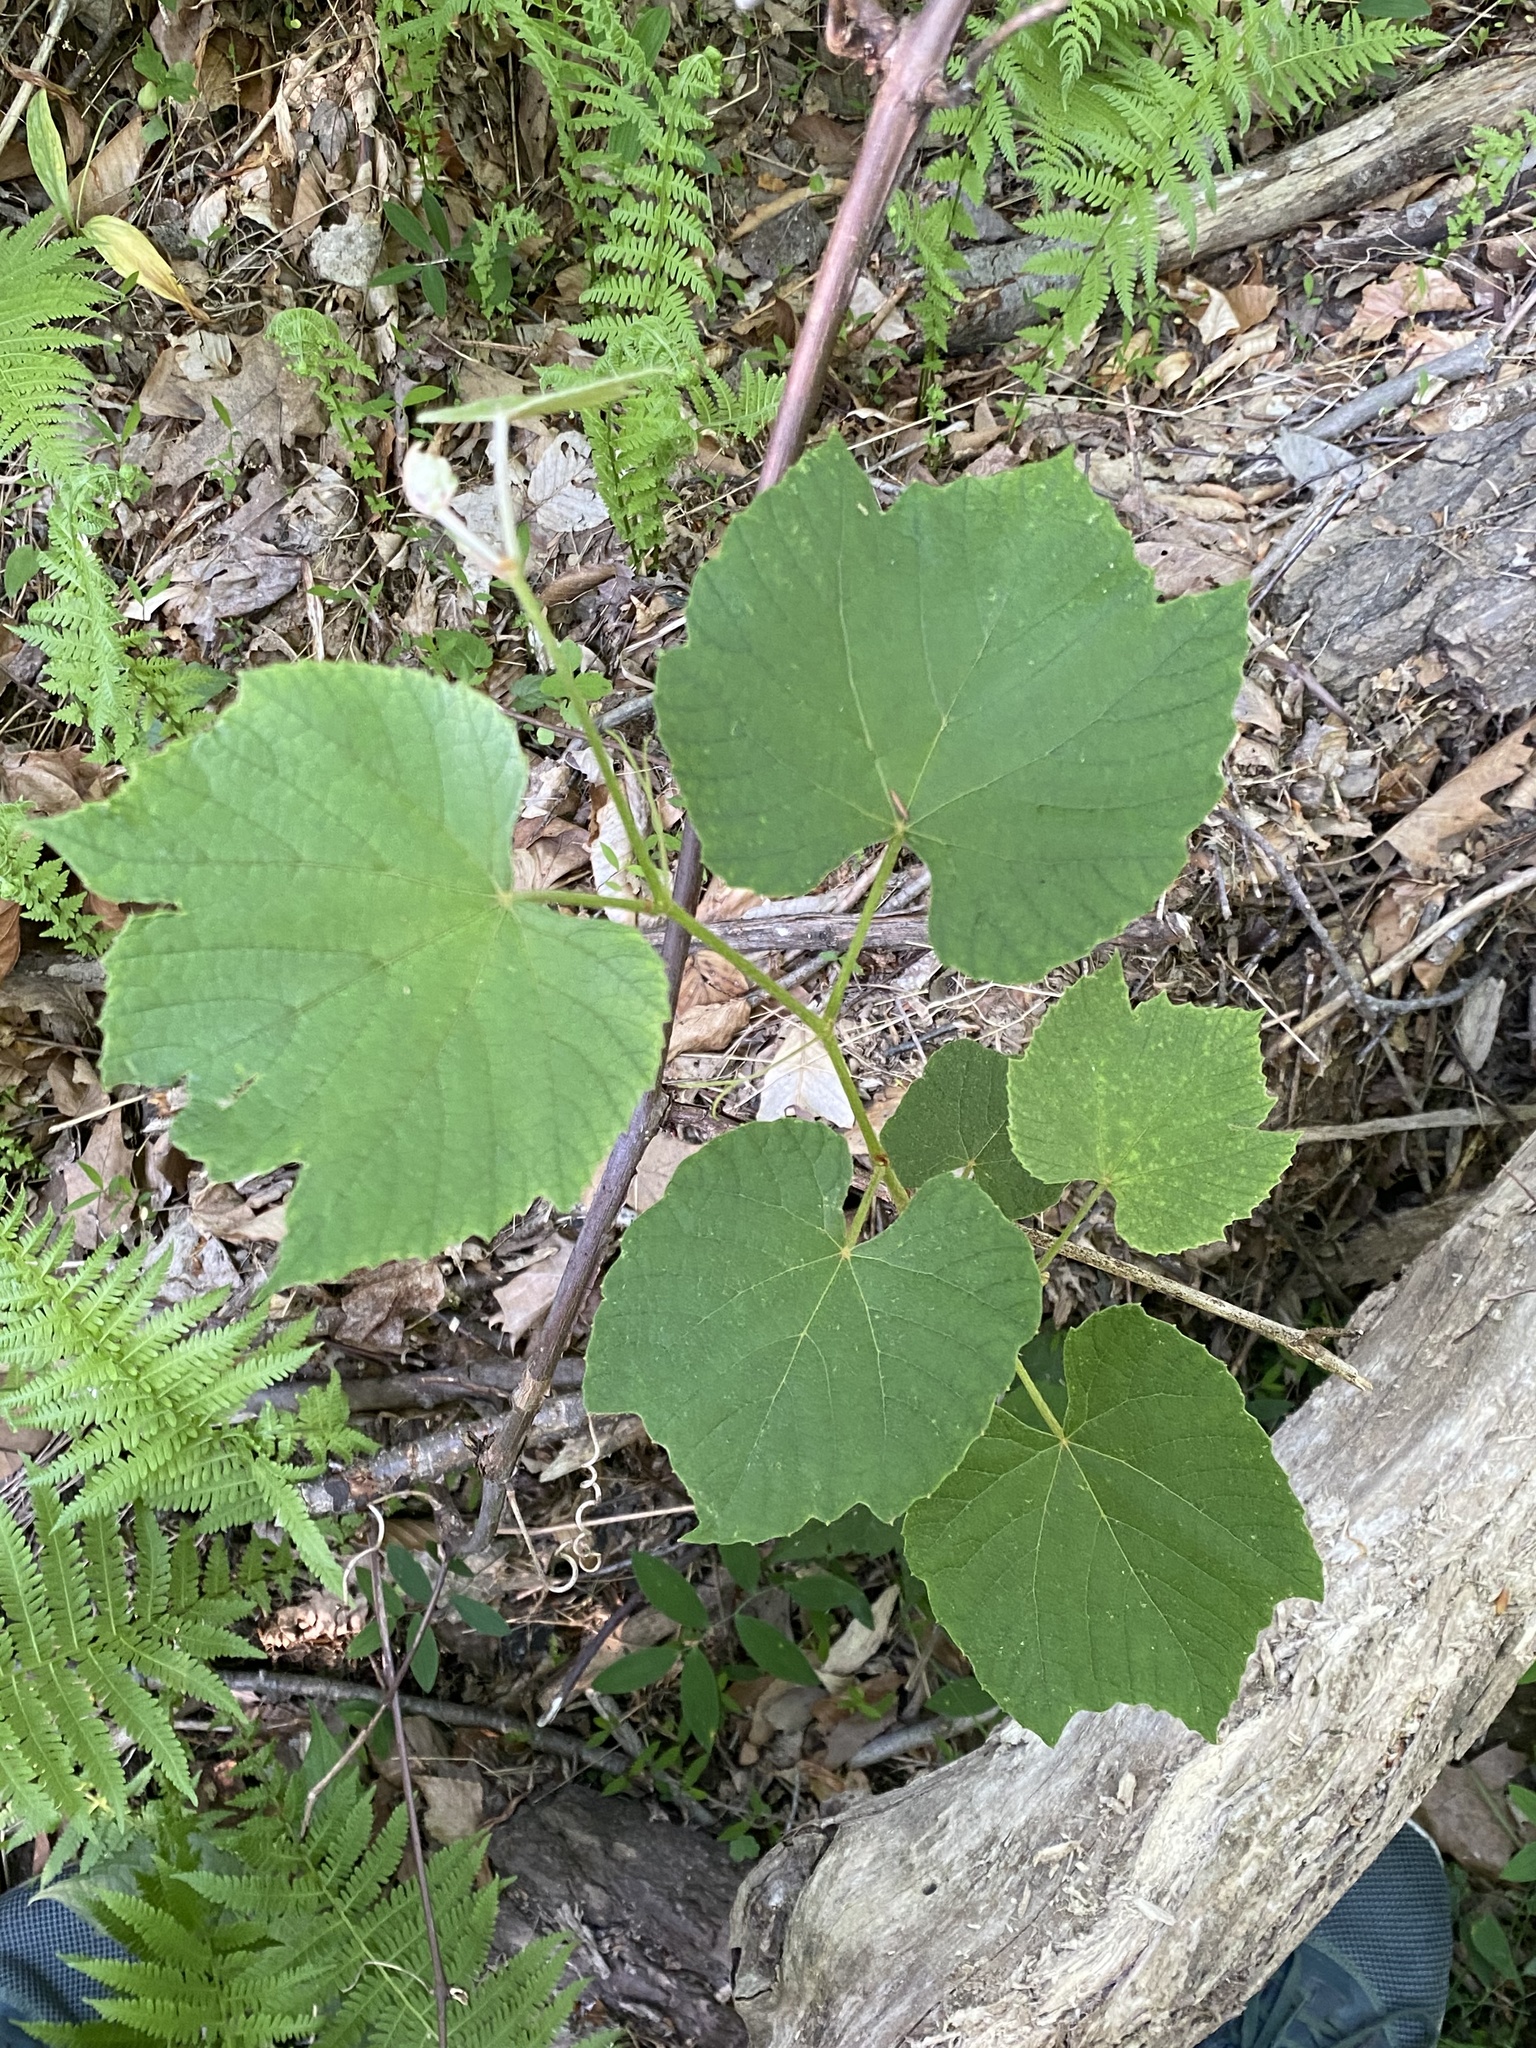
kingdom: Plantae
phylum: Tracheophyta
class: Magnoliopsida
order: Vitales
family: Vitaceae
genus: Vitis
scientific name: Vitis labrusca
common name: Concord grape
